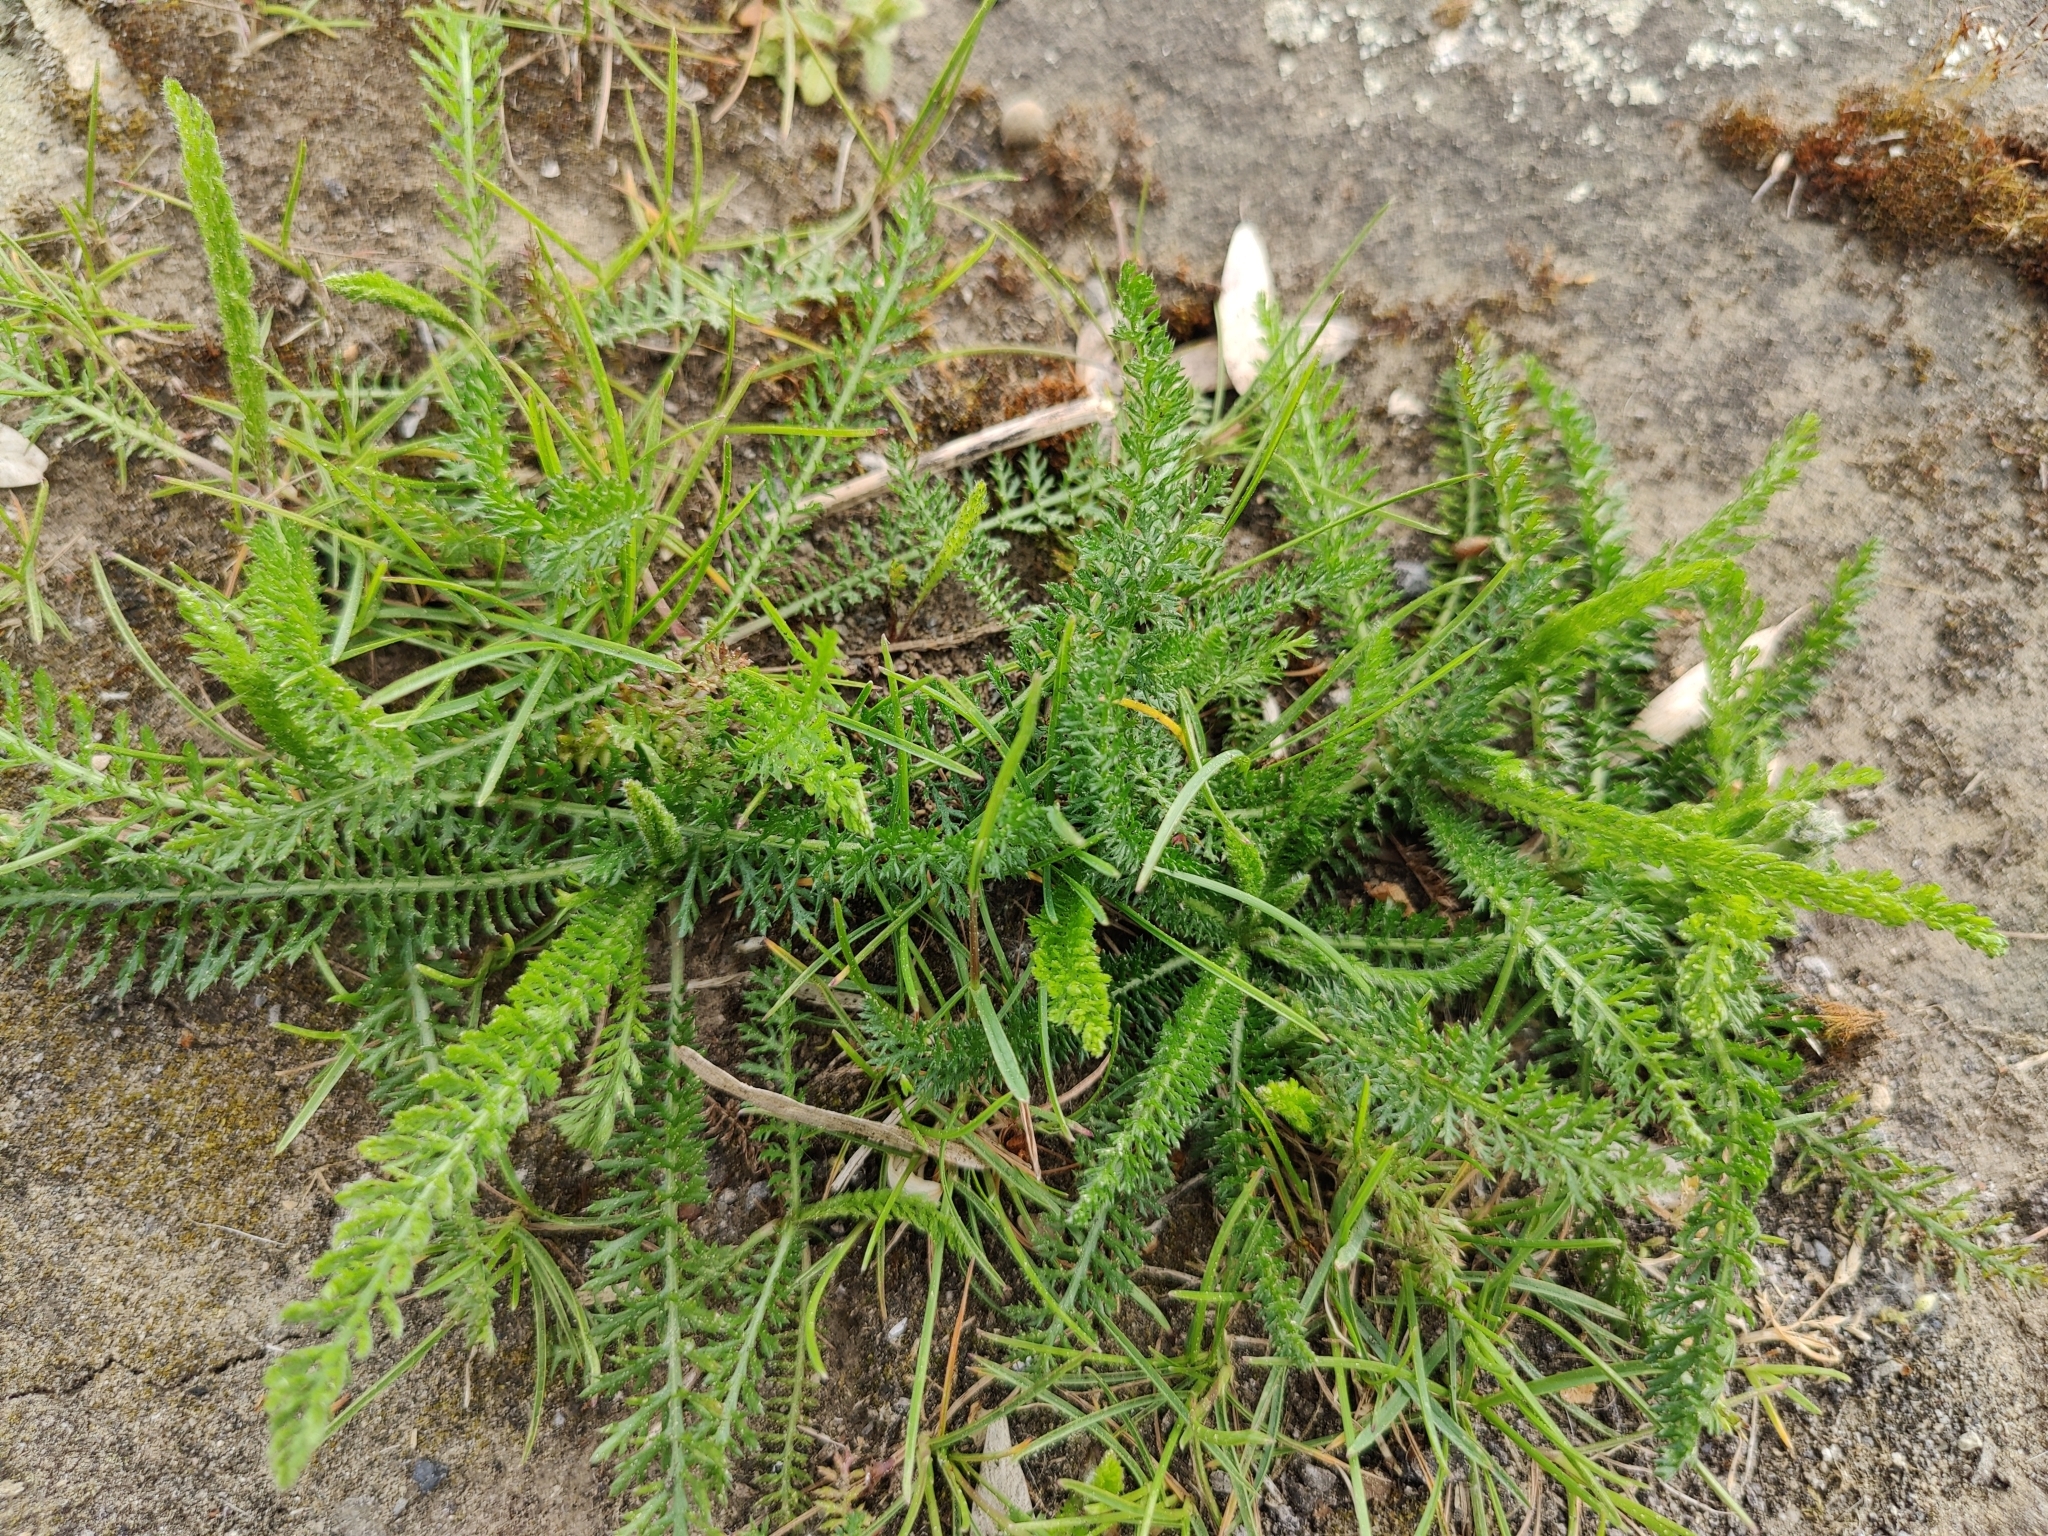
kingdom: Plantae
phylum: Tracheophyta
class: Magnoliopsida
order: Asterales
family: Asteraceae
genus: Achillea
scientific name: Achillea millefolium
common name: Yarrow
